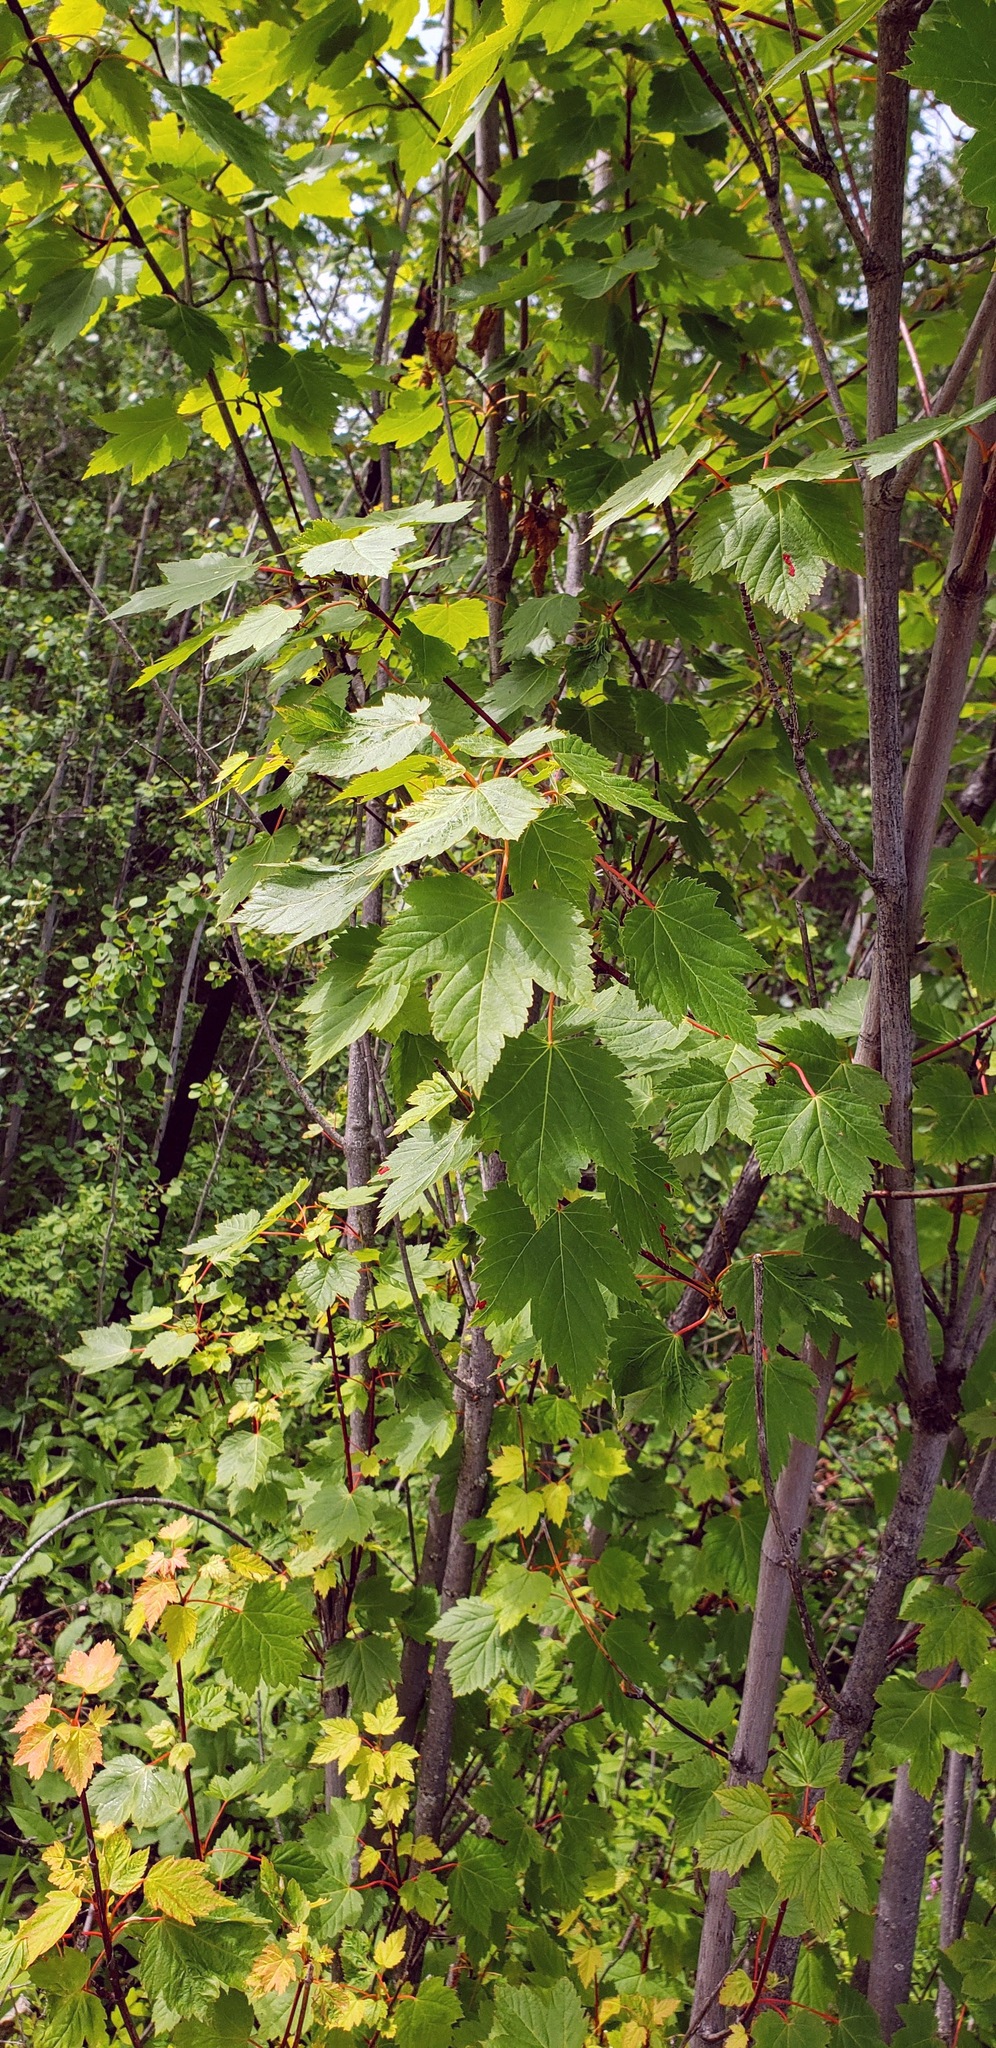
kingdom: Plantae
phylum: Tracheophyta
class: Magnoliopsida
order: Sapindales
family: Sapindaceae
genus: Acer
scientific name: Acer glabrum
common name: Rocky mountain maple
